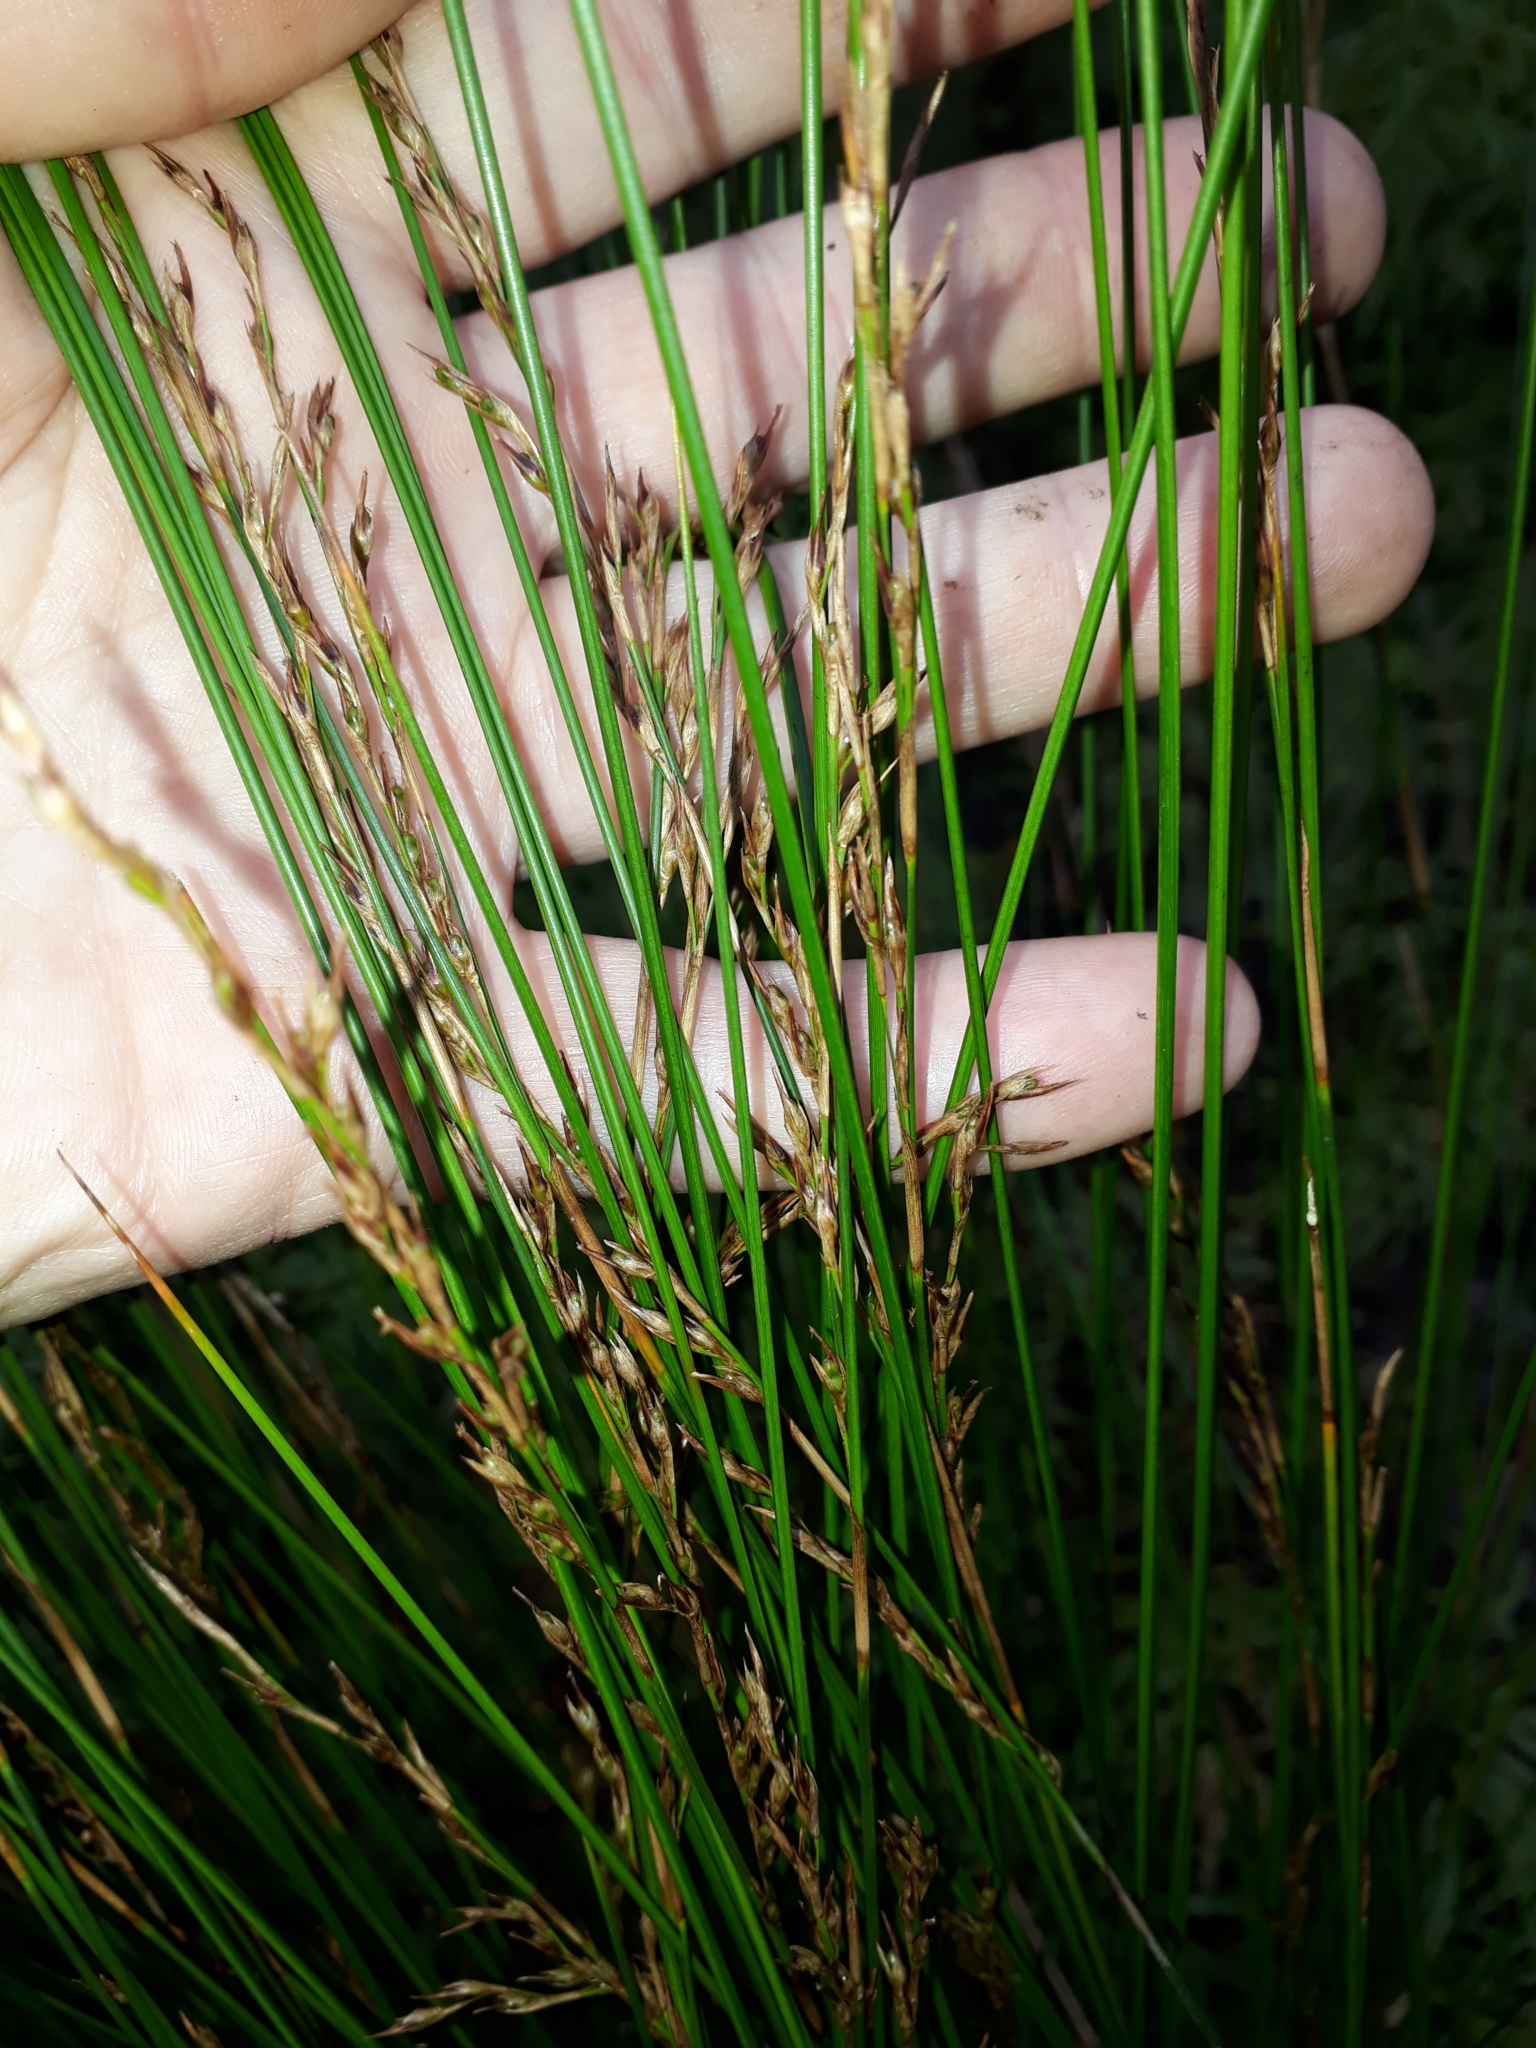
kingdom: Plantae
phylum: Tracheophyta
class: Liliopsida
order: Poales
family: Cyperaceae
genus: Machaerina
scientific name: Machaerina tenax
